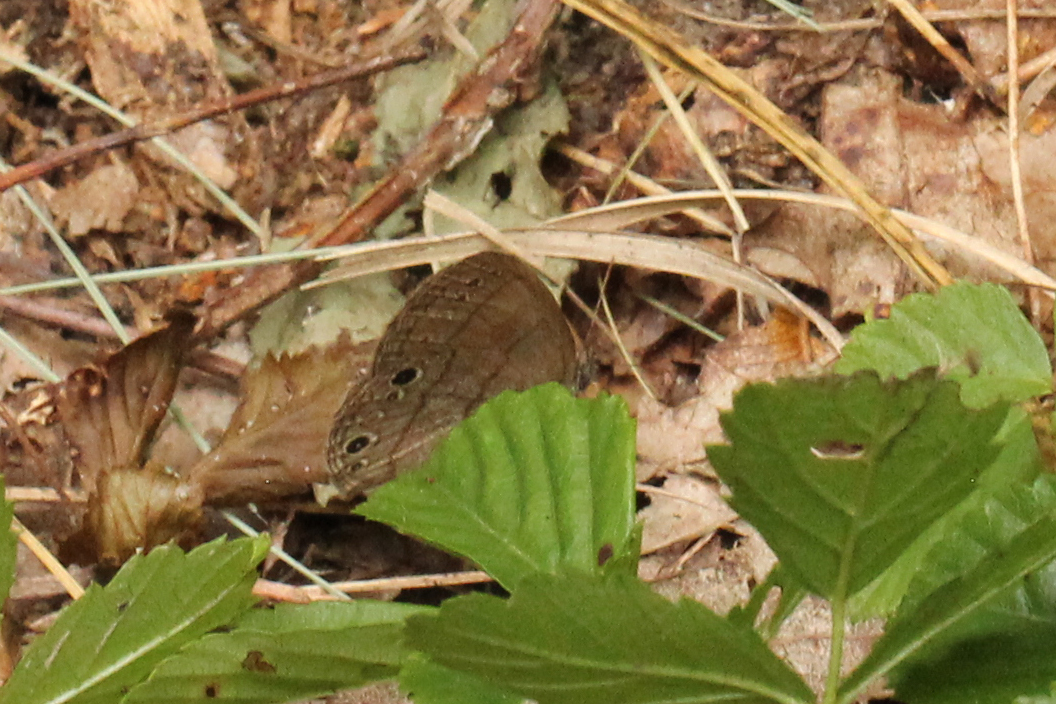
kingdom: Animalia
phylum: Arthropoda
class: Insecta
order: Lepidoptera
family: Nymphalidae
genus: Hermeuptychia
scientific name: Hermeuptychia hermes
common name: Hermes satyr
